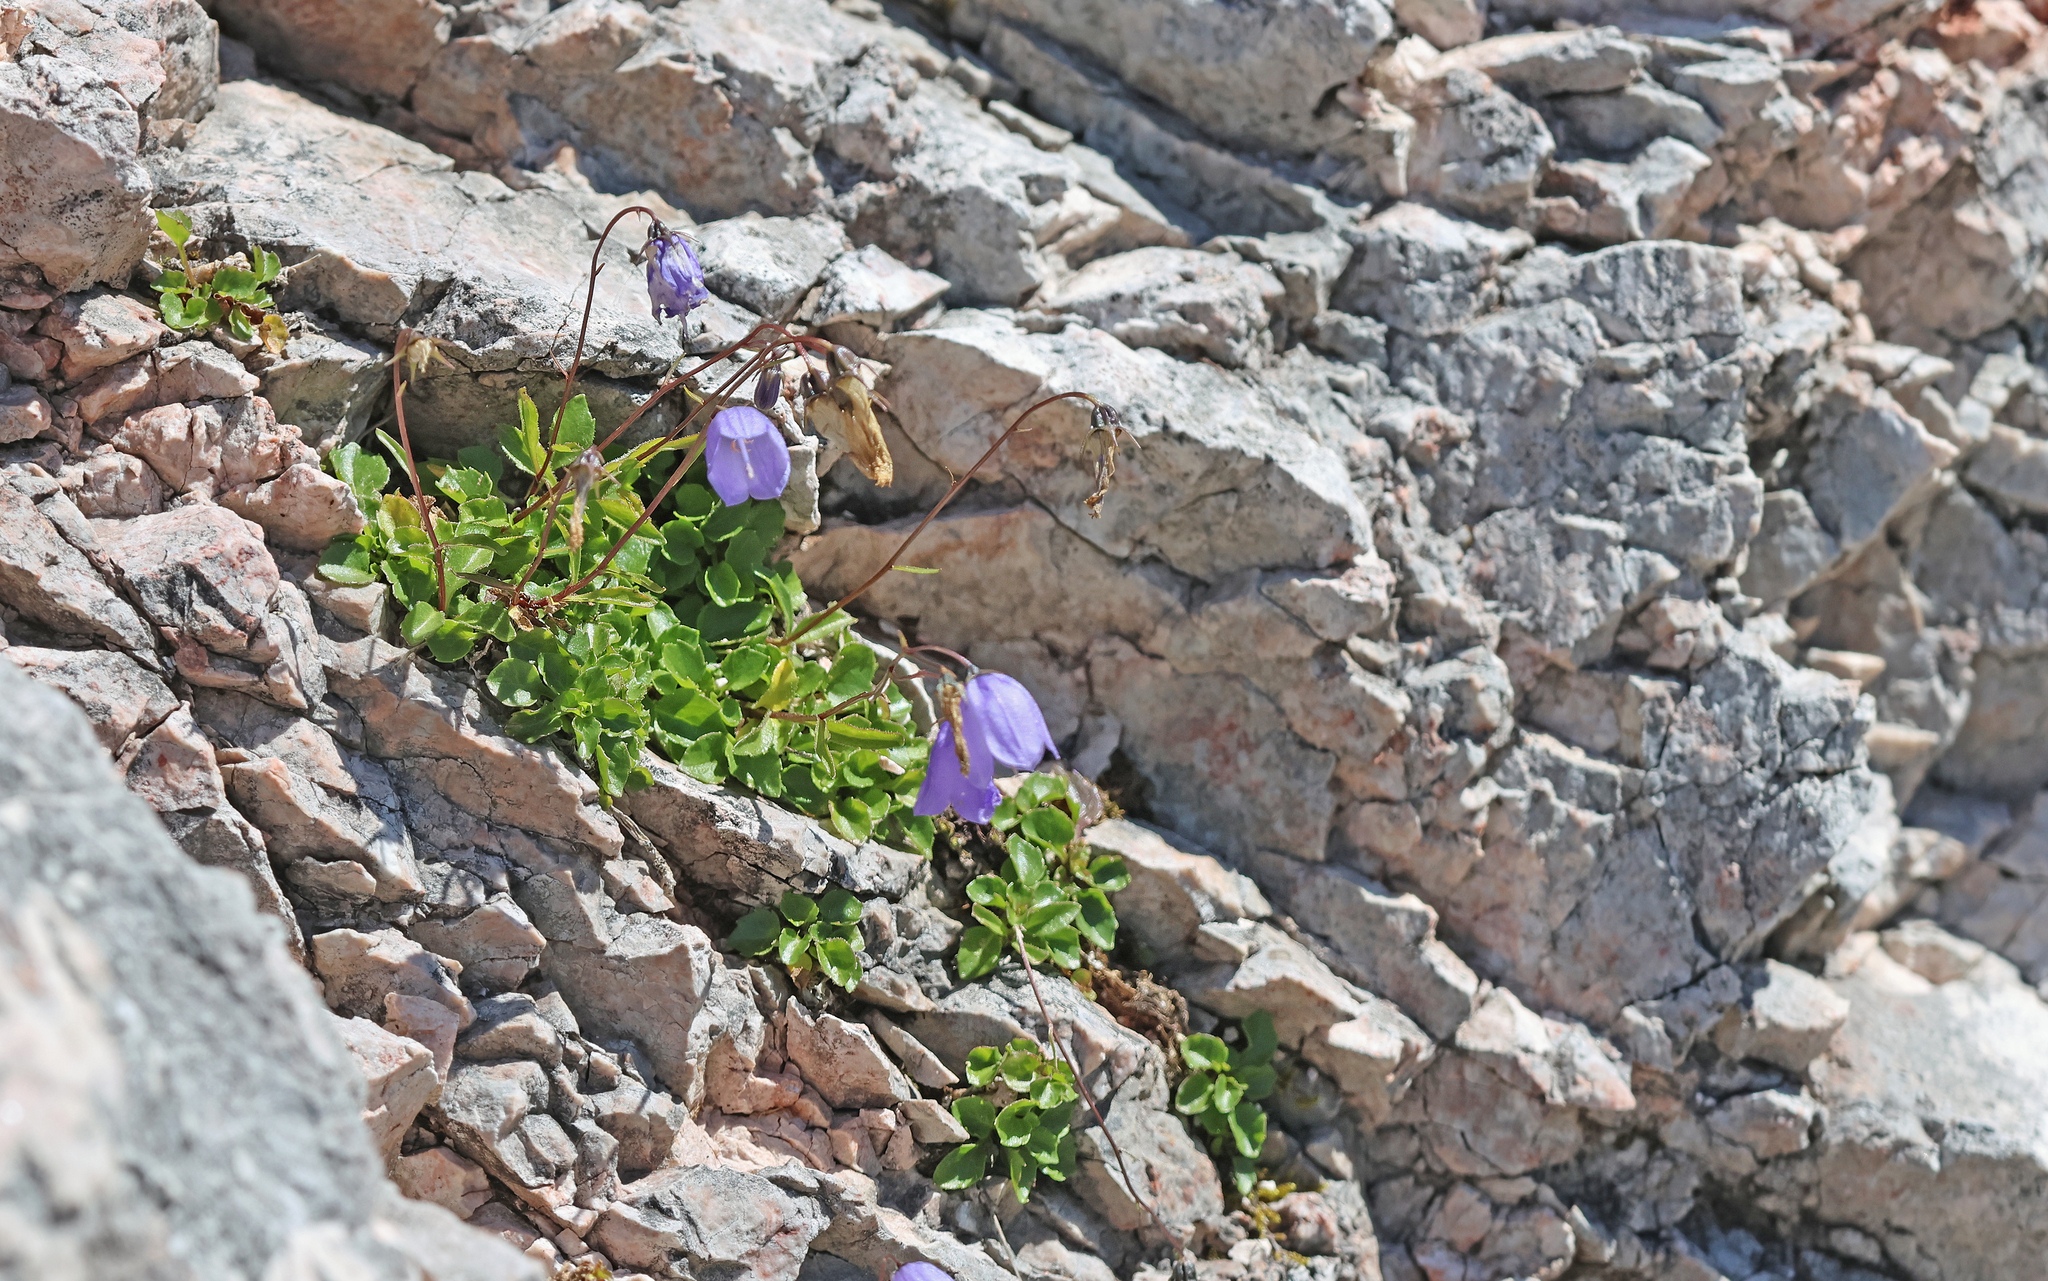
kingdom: Plantae
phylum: Tracheophyta
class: Magnoliopsida
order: Asterales
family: Campanulaceae
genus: Campanula
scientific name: Campanula cochleariifolia
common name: Fairies'-thimbles
